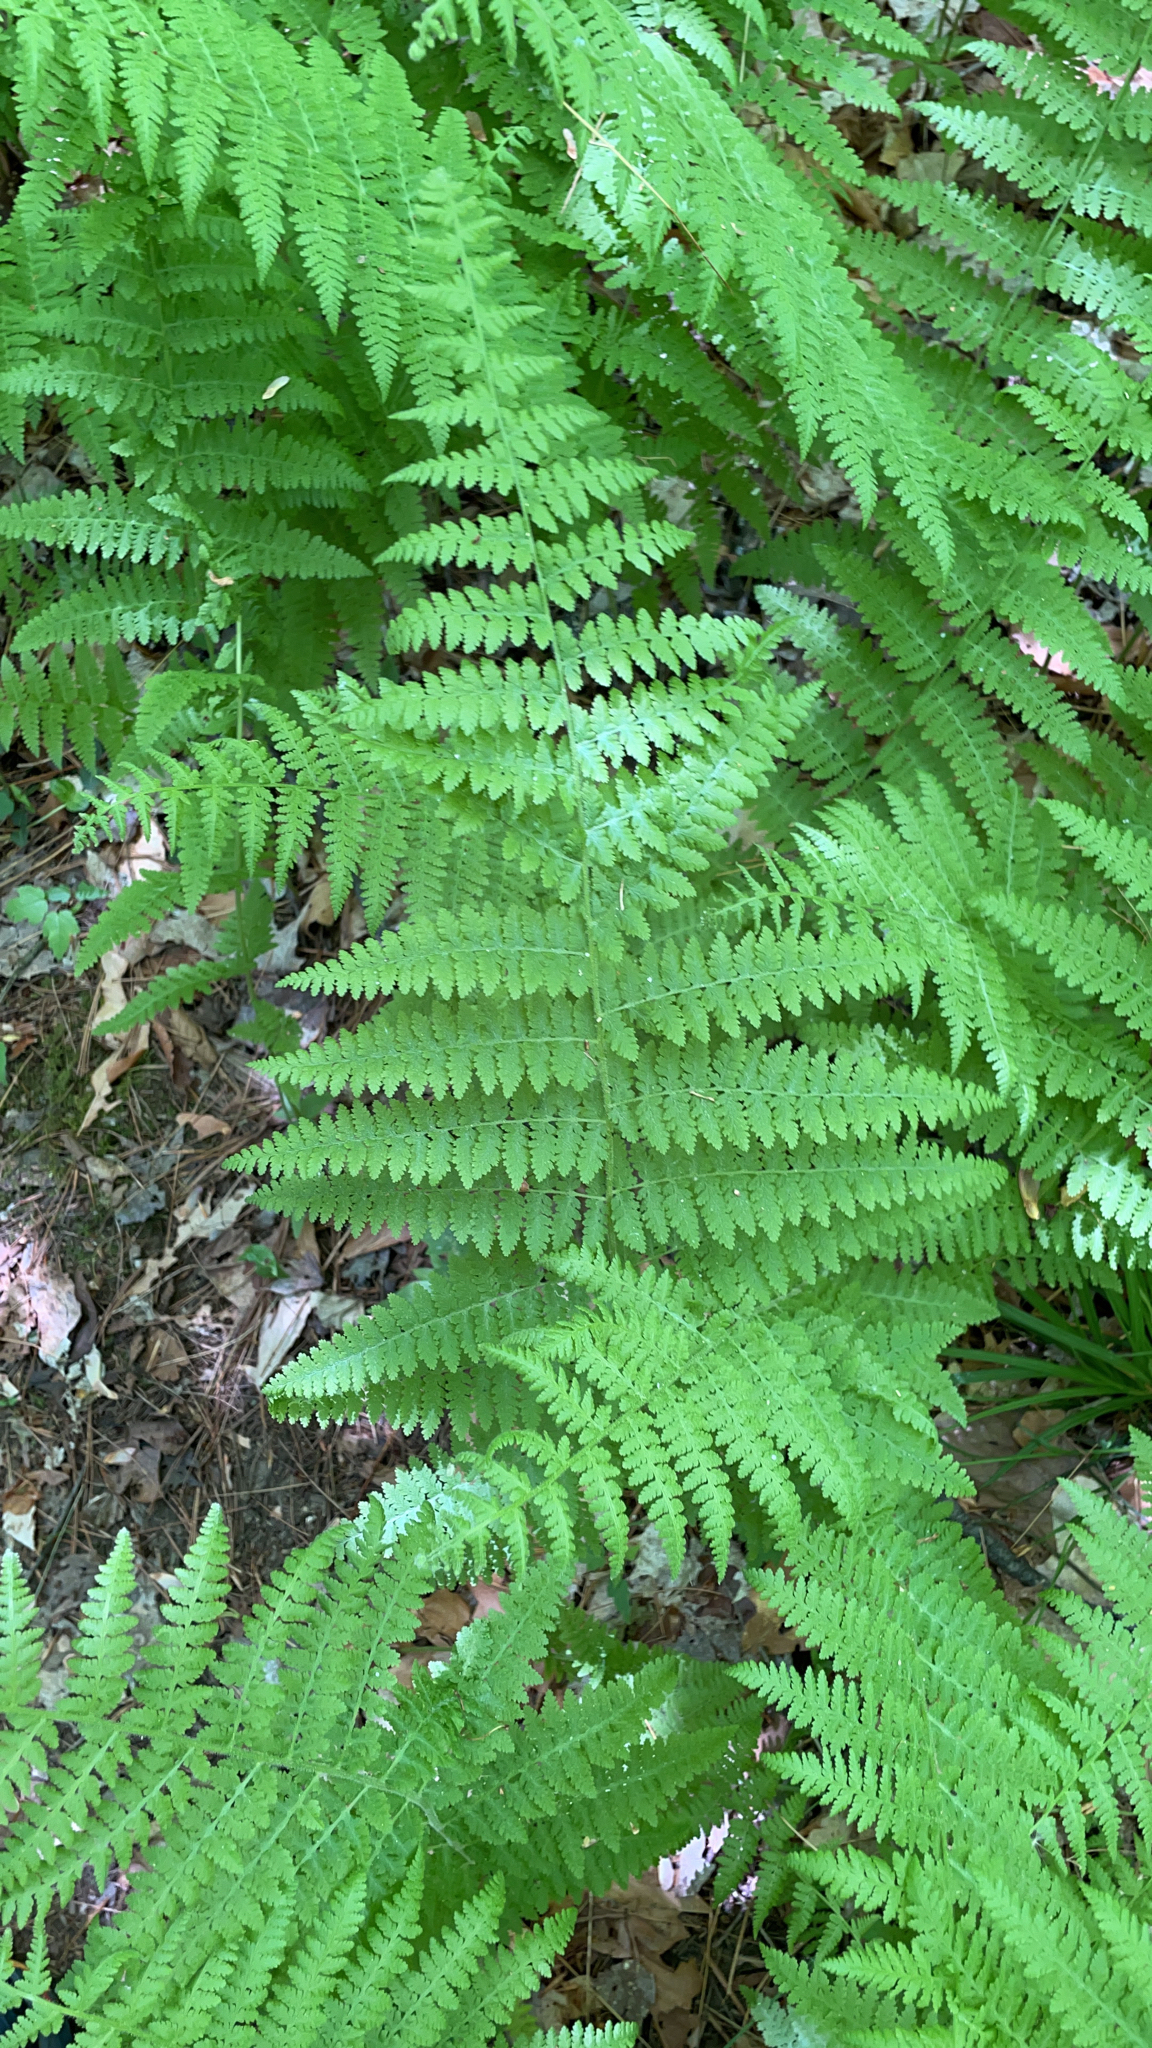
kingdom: Plantae
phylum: Tracheophyta
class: Polypodiopsida
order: Polypodiales
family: Dennstaedtiaceae
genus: Sitobolium
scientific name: Sitobolium punctilobum
